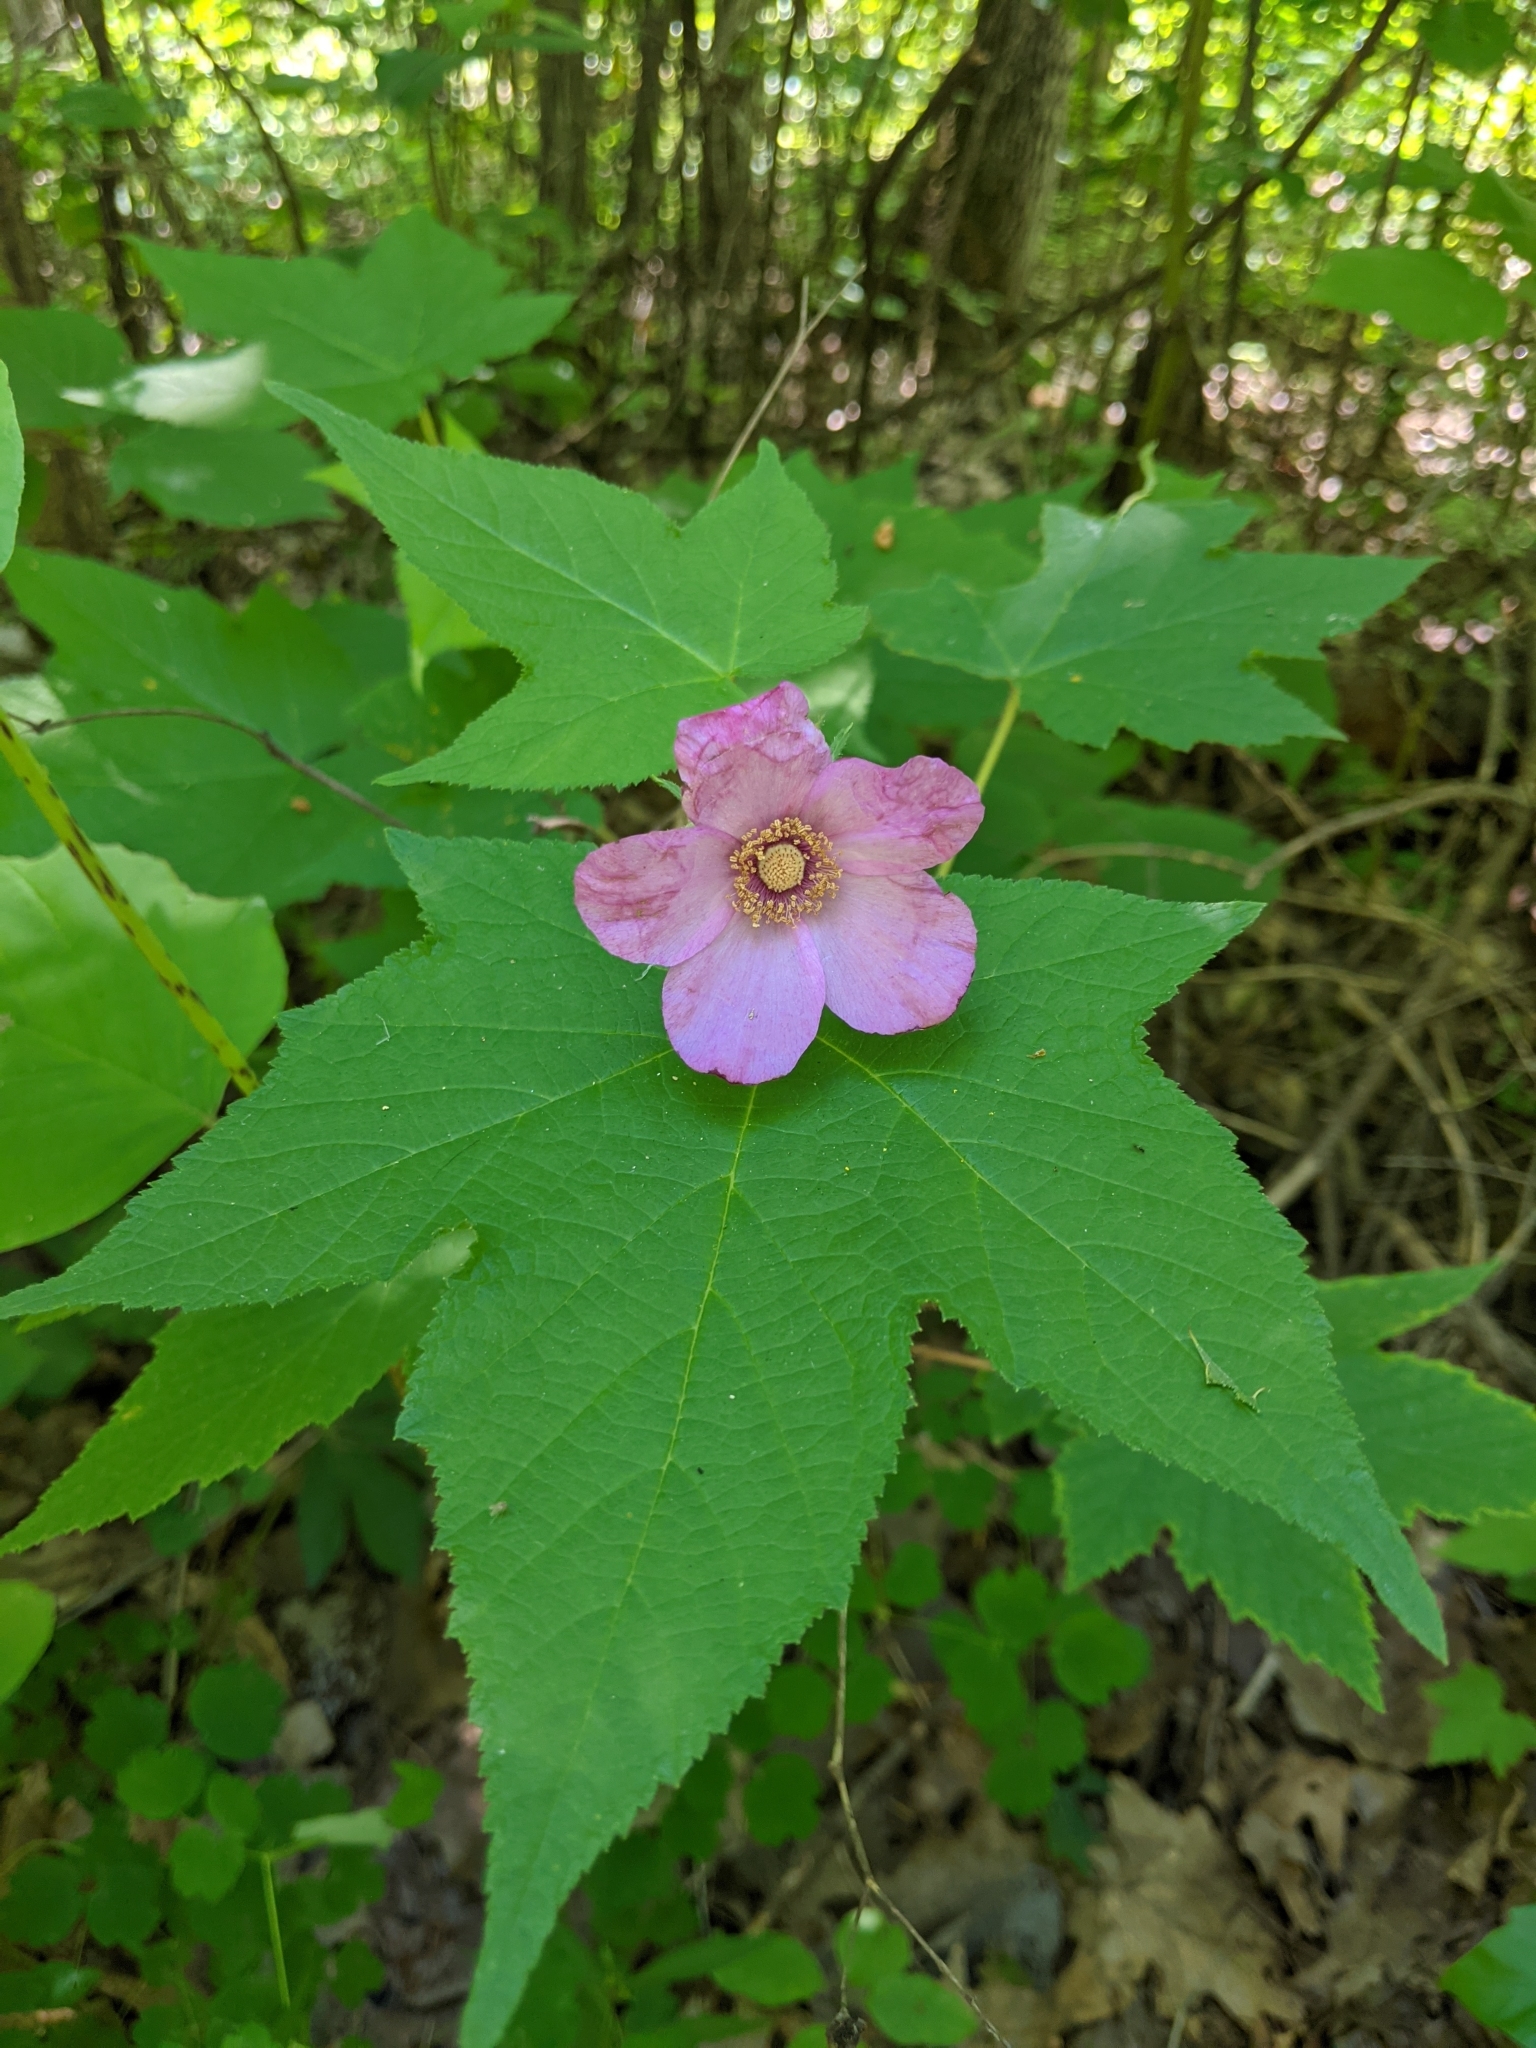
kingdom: Plantae
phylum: Tracheophyta
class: Magnoliopsida
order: Rosales
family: Rosaceae
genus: Rubus
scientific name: Rubus odoratus
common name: Purple-flowered raspberry
